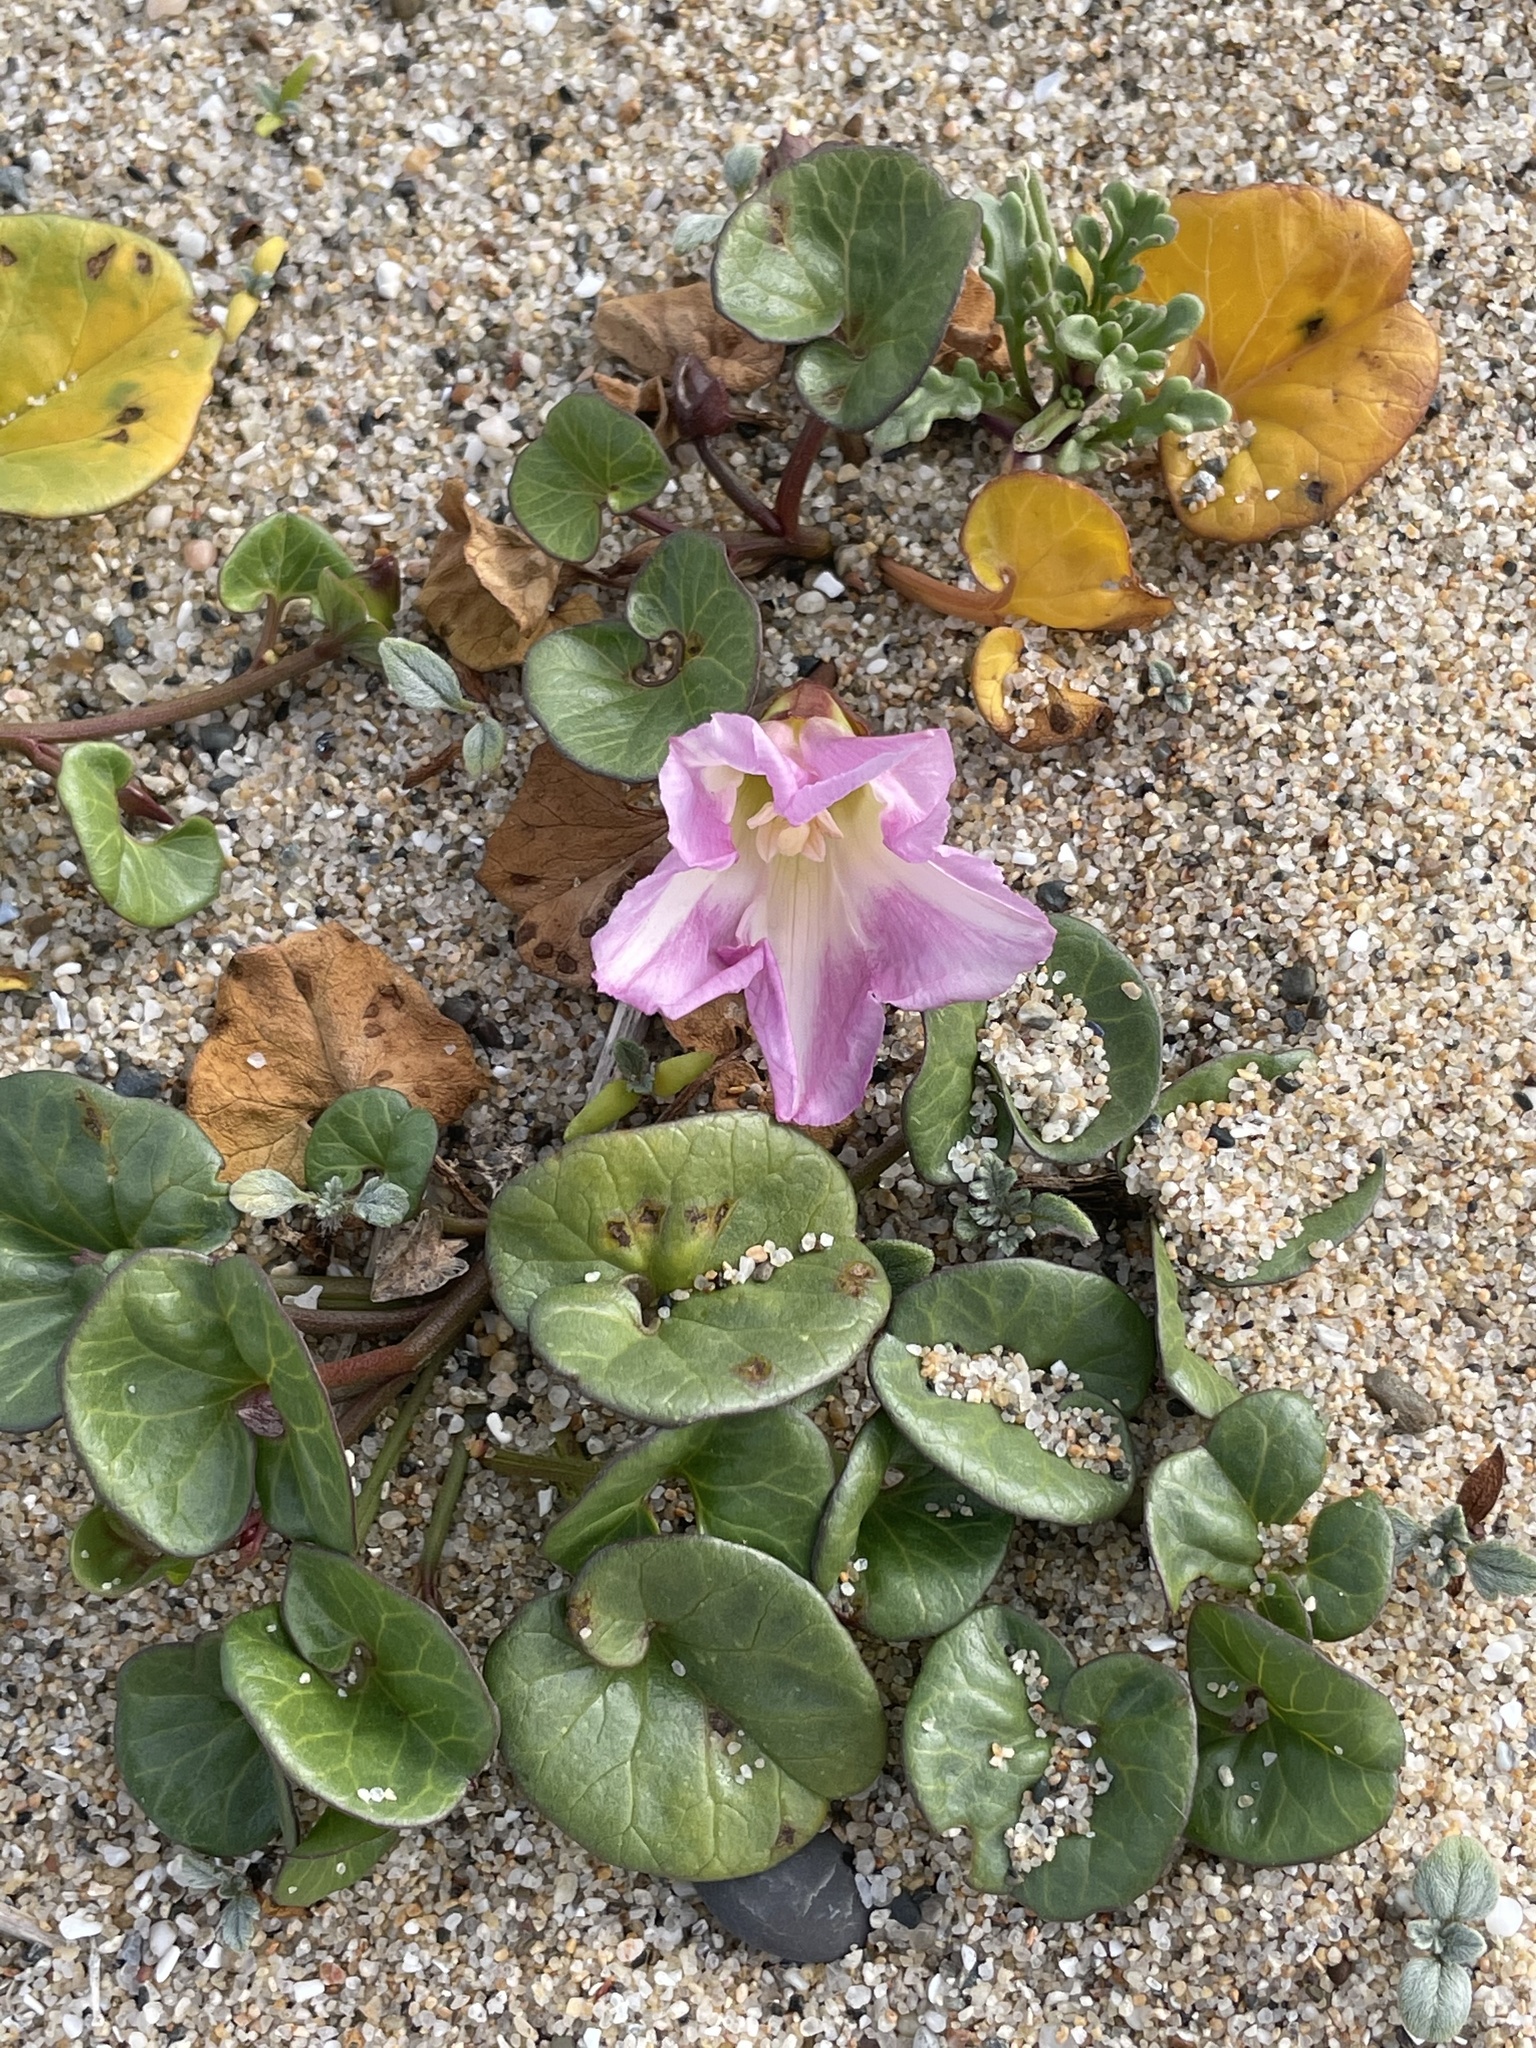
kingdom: Plantae
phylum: Tracheophyta
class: Magnoliopsida
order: Solanales
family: Convolvulaceae
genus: Calystegia
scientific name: Calystegia soldanella
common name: Sea bindweed
